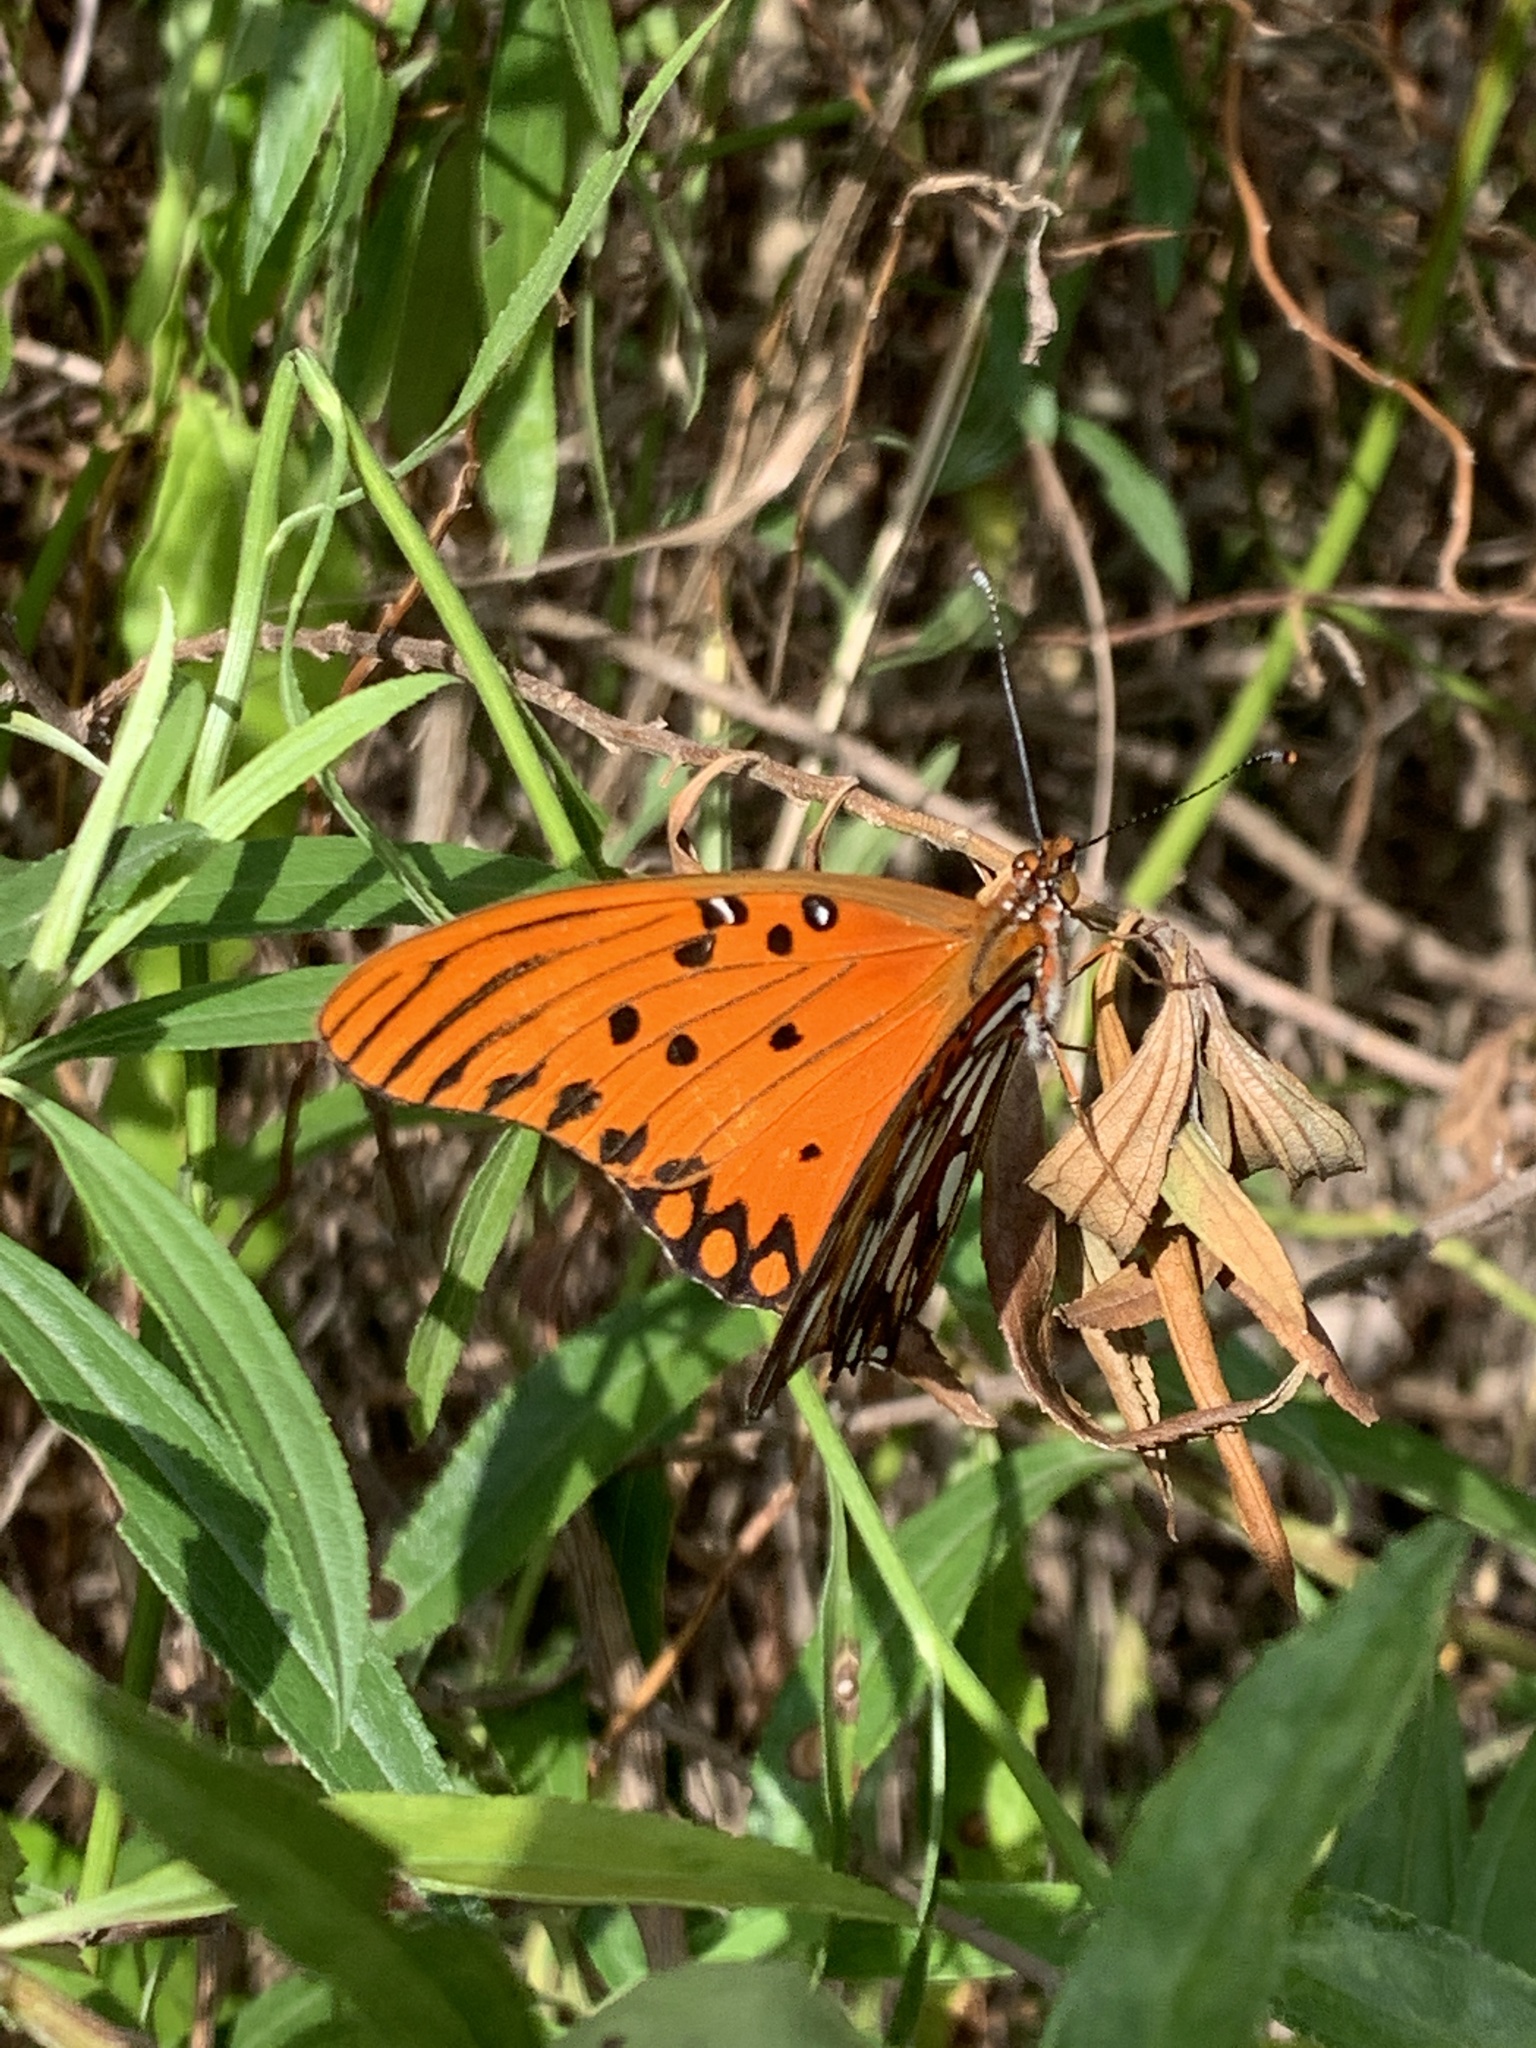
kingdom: Animalia
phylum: Arthropoda
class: Insecta
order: Lepidoptera
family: Nymphalidae
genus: Dione
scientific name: Dione vanillae
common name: Gulf fritillary
